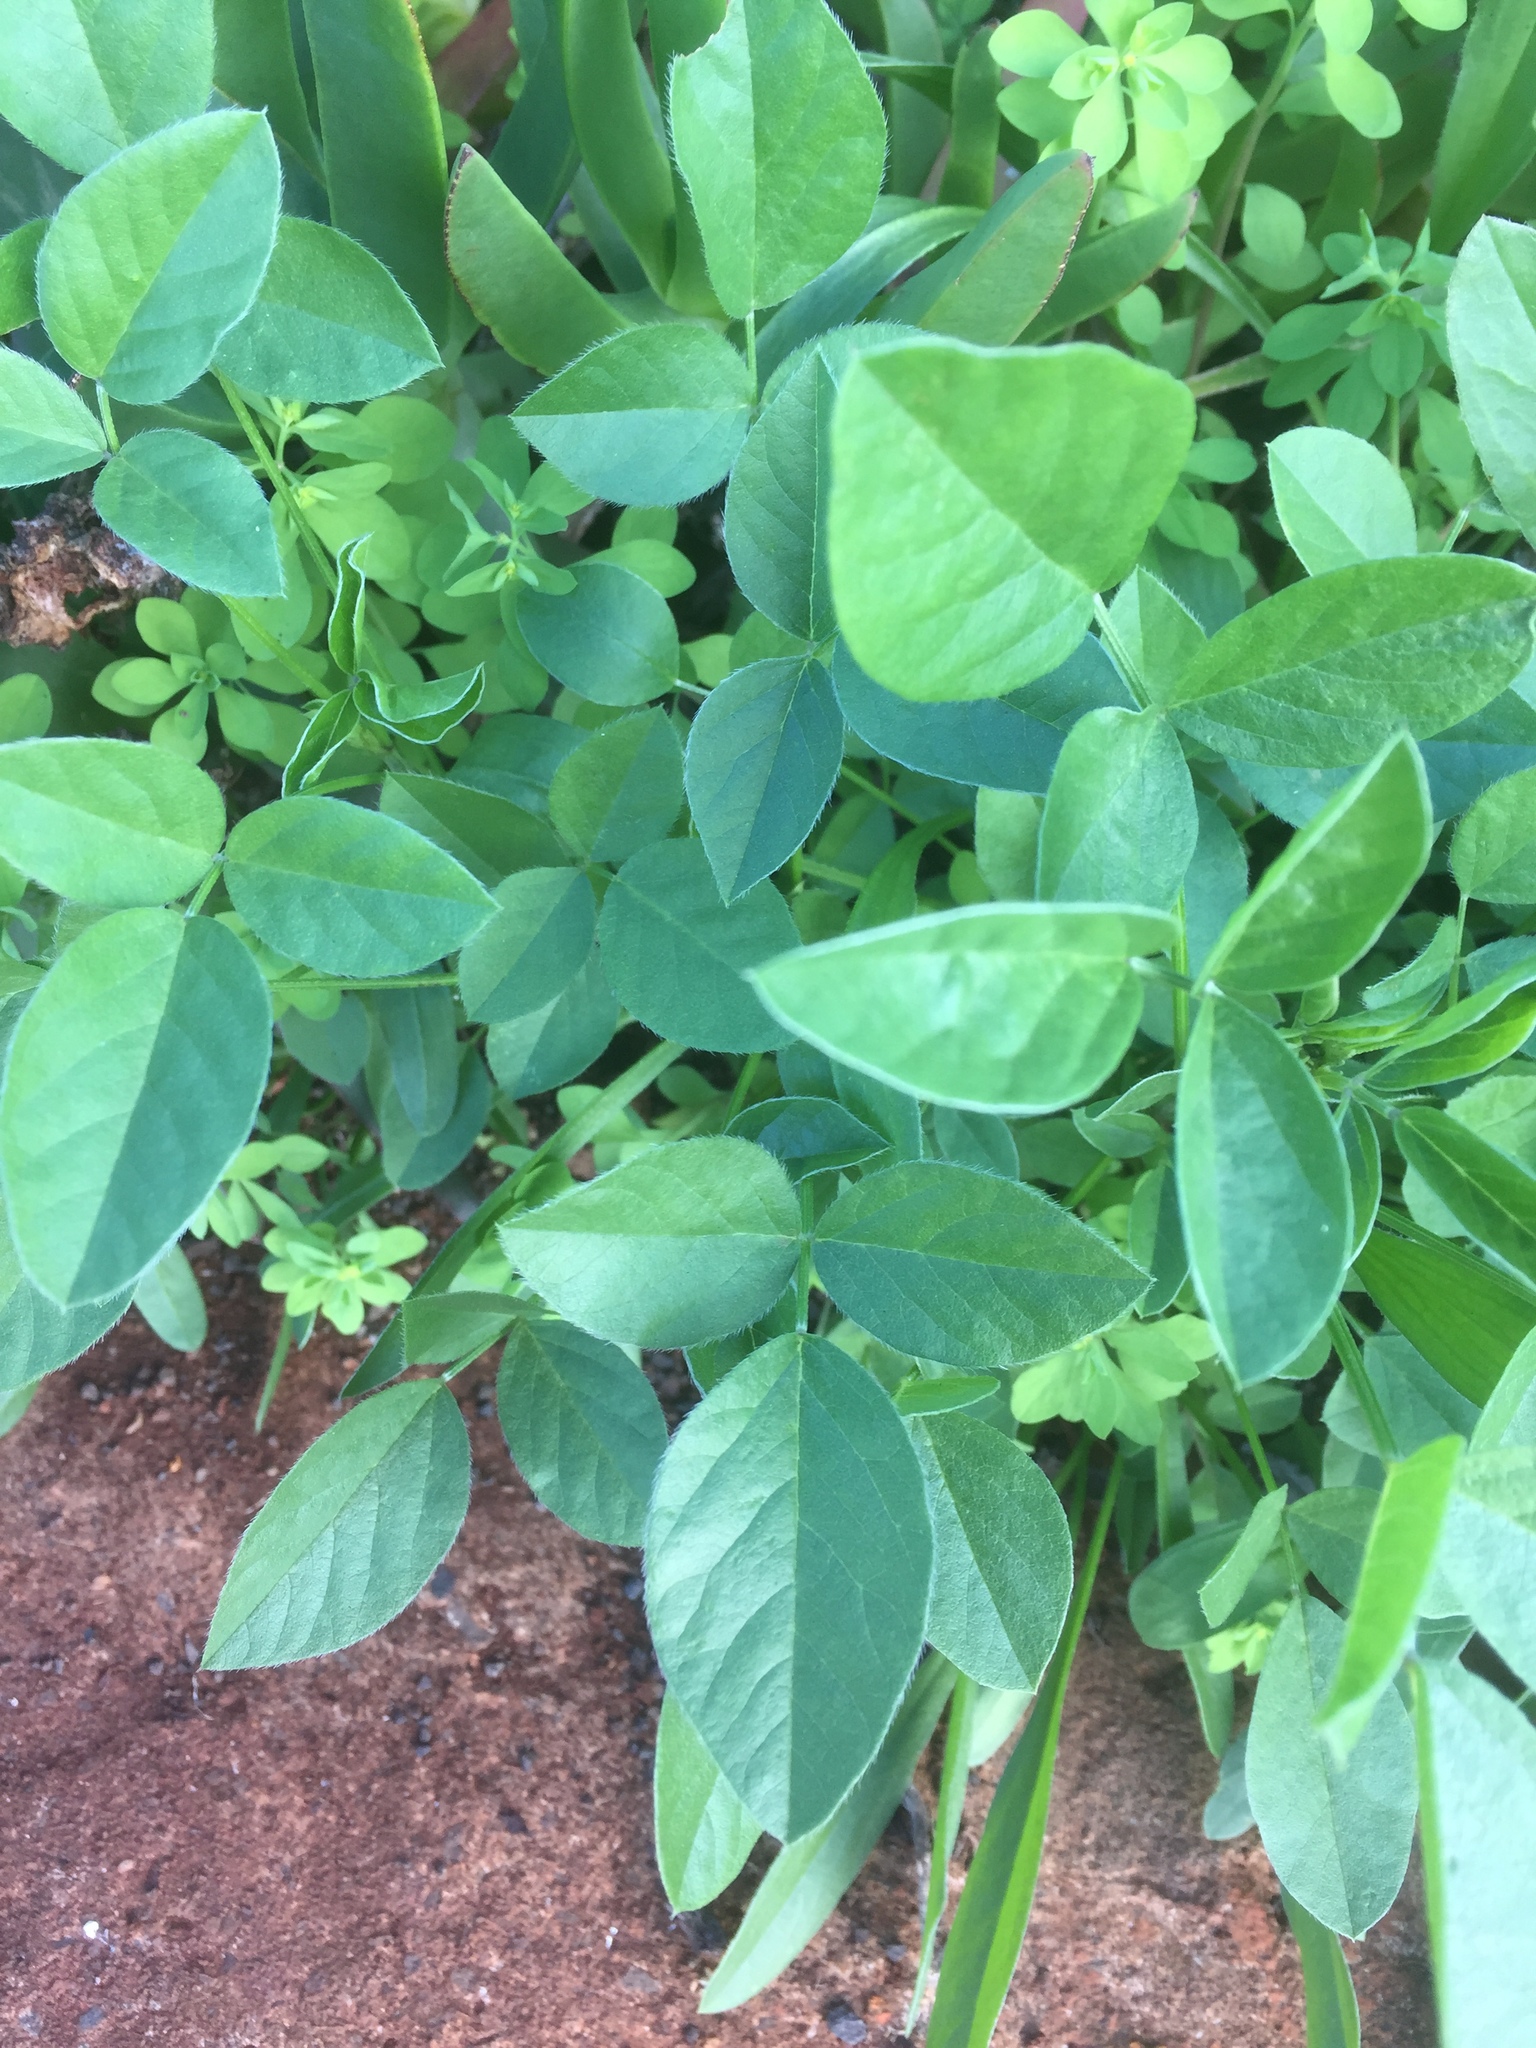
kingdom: Plantae
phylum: Tracheophyta
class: Magnoliopsida
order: Fabales
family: Fabaceae
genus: Bituminaria
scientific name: Bituminaria bituminosa
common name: Arabian pea
